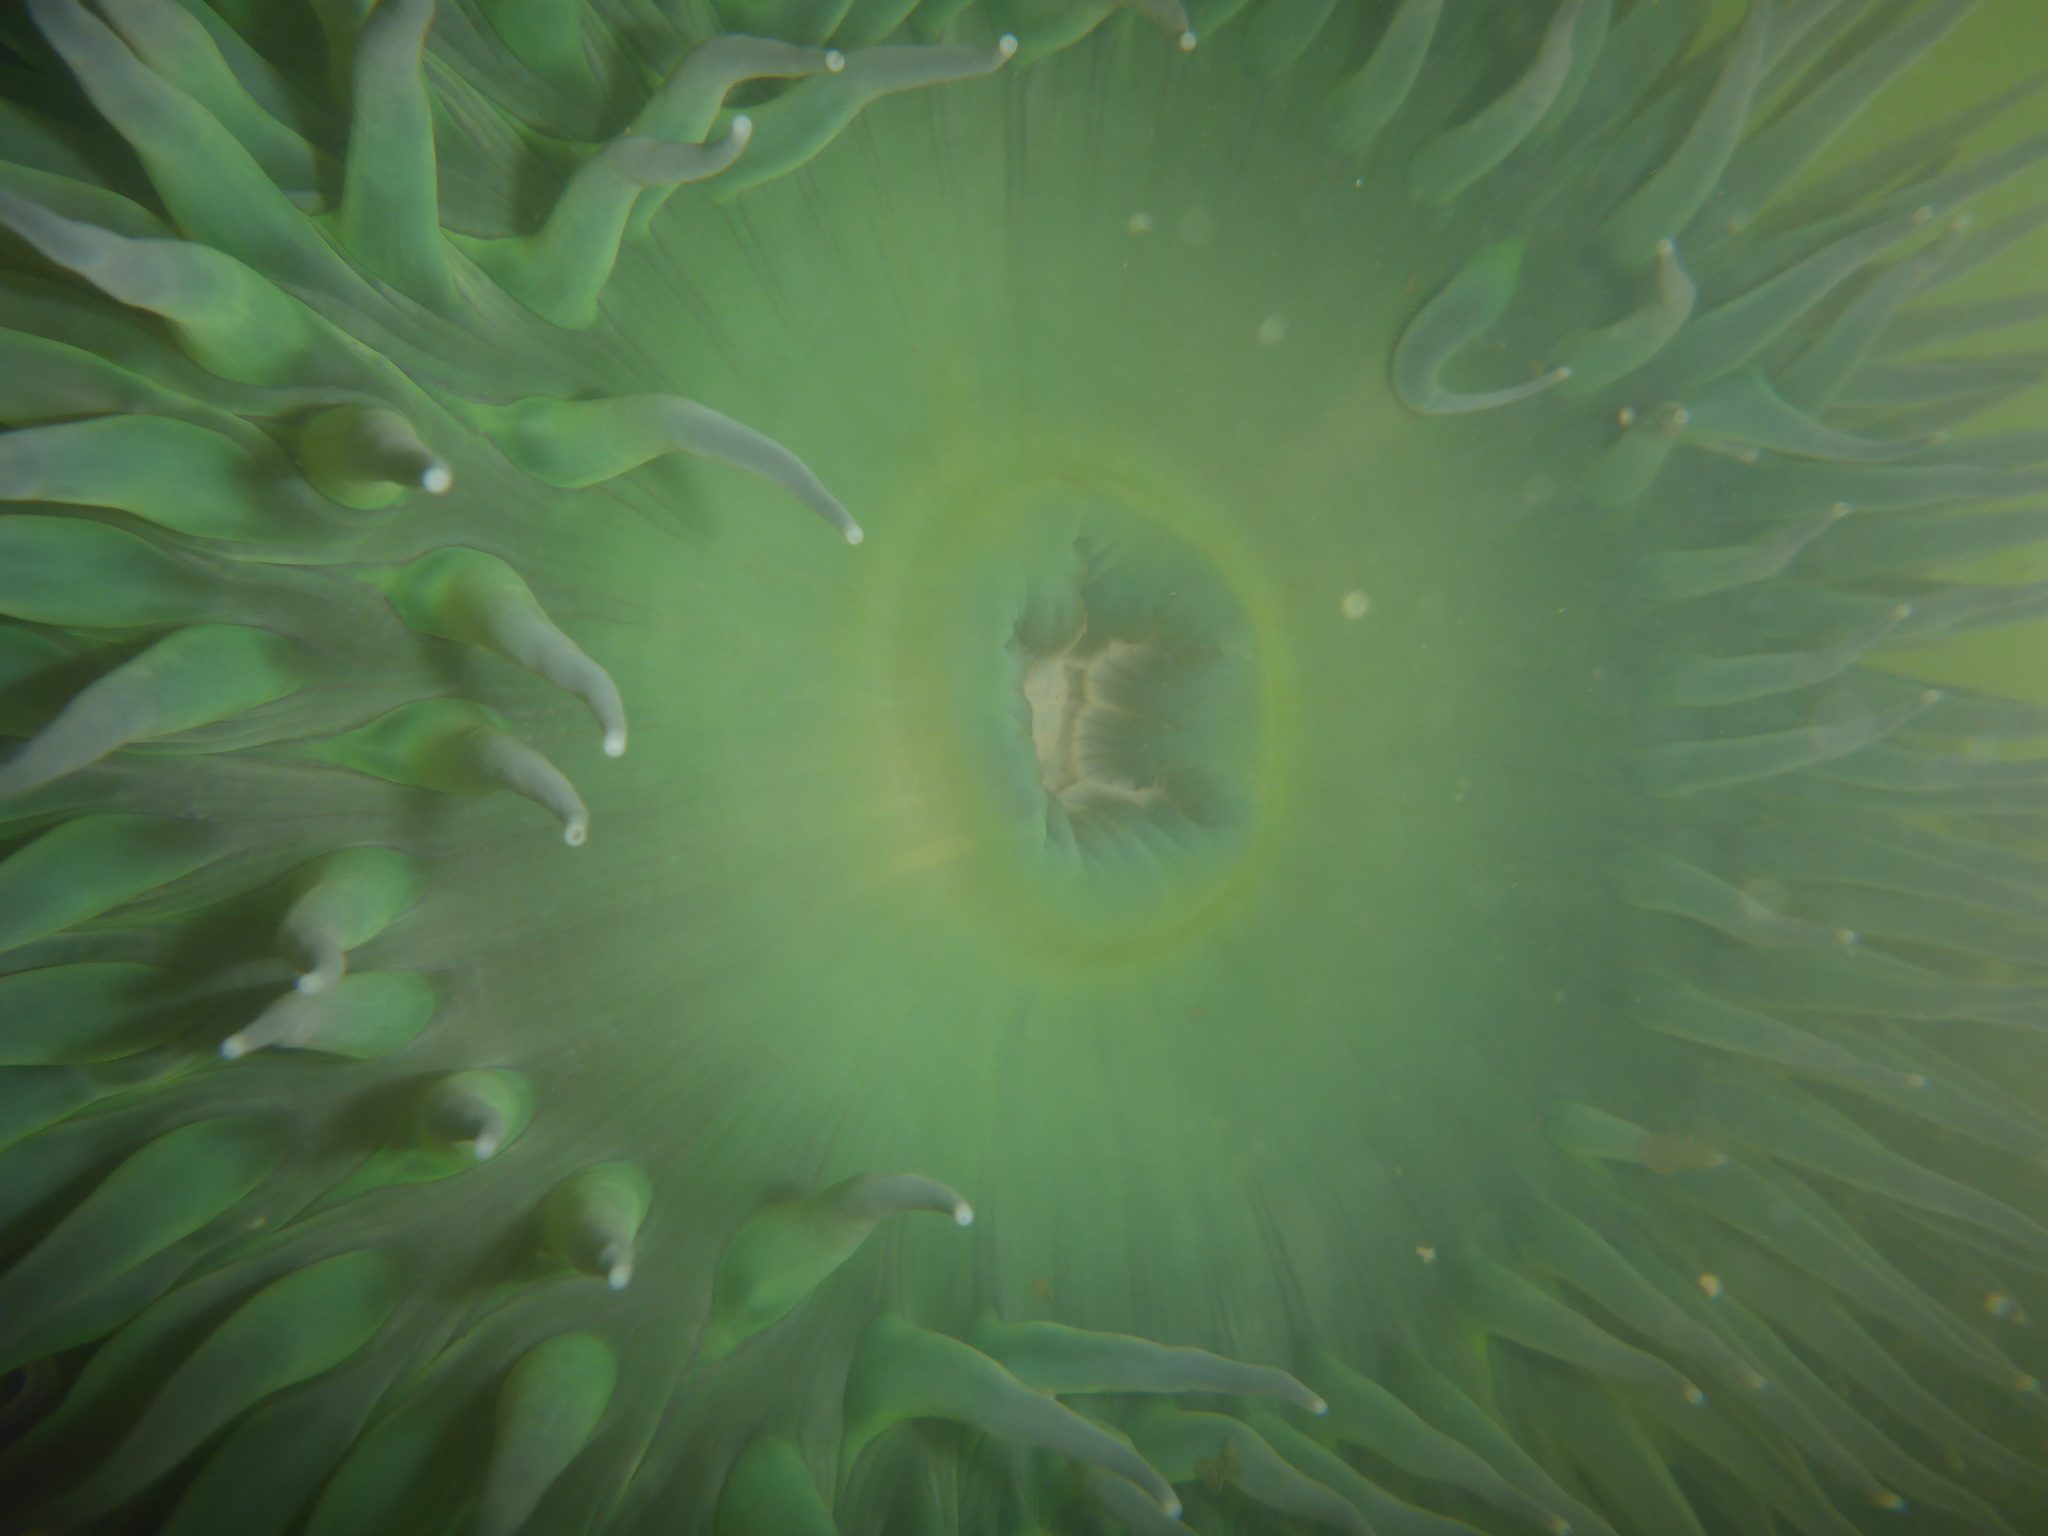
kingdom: Animalia
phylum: Cnidaria
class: Anthozoa
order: Actiniaria
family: Actiniidae
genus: Anthopleura
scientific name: Anthopleura xanthogrammica
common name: Giant green anemone
